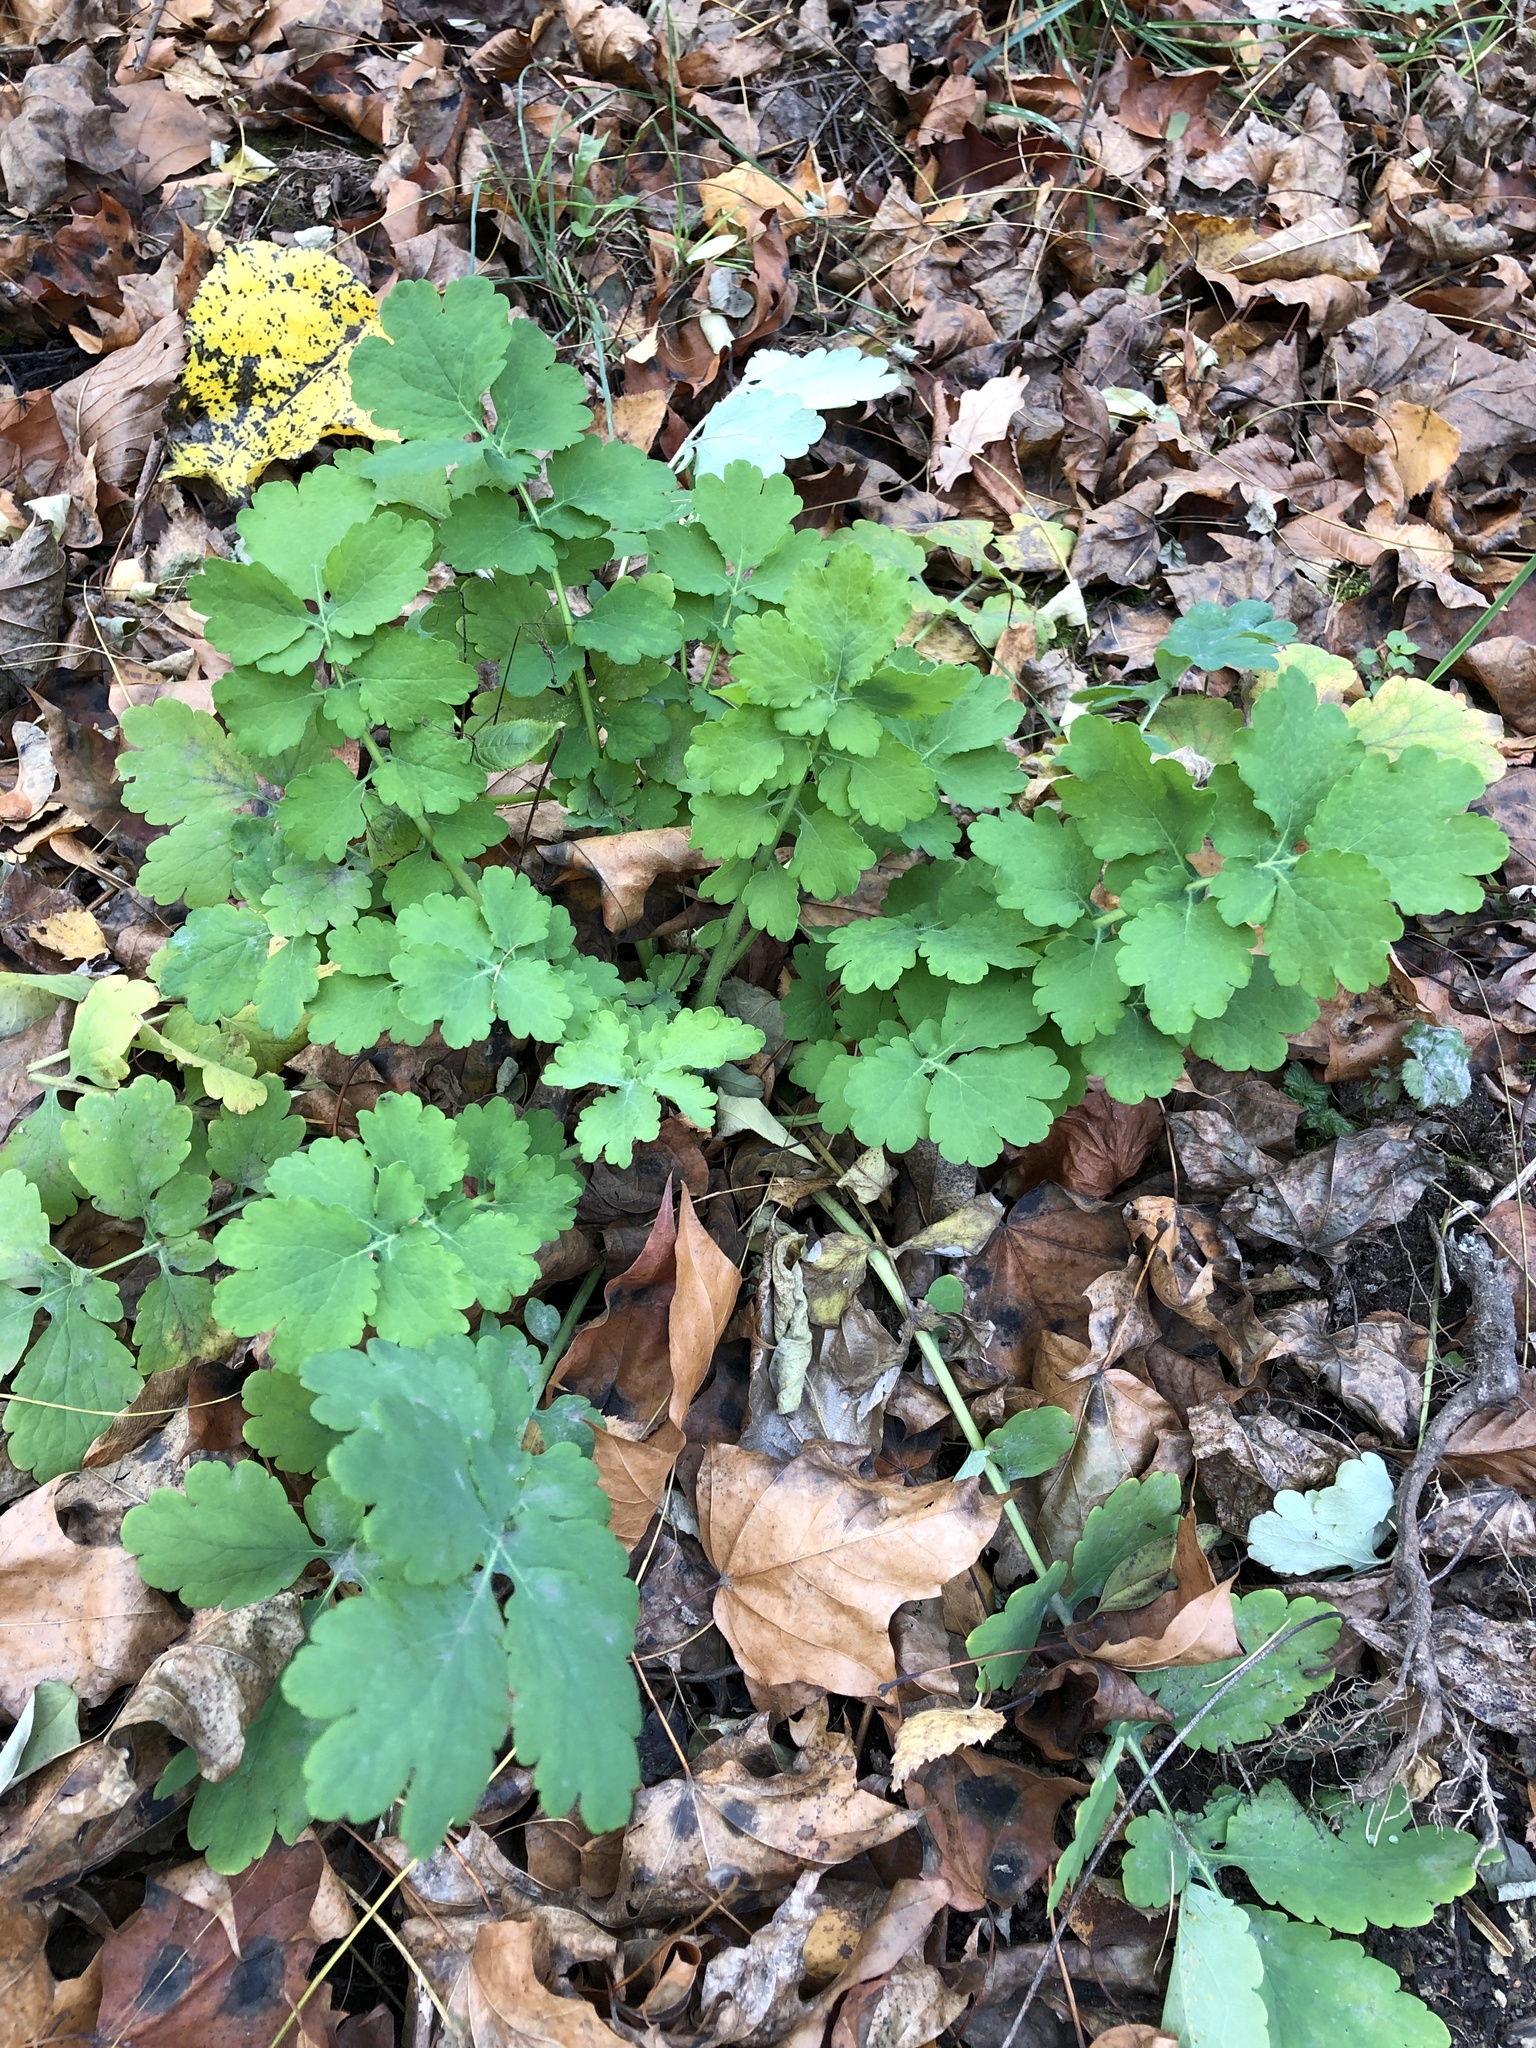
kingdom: Plantae
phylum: Tracheophyta
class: Magnoliopsida
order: Ranunculales
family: Papaveraceae
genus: Chelidonium
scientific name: Chelidonium majus
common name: Greater celandine
